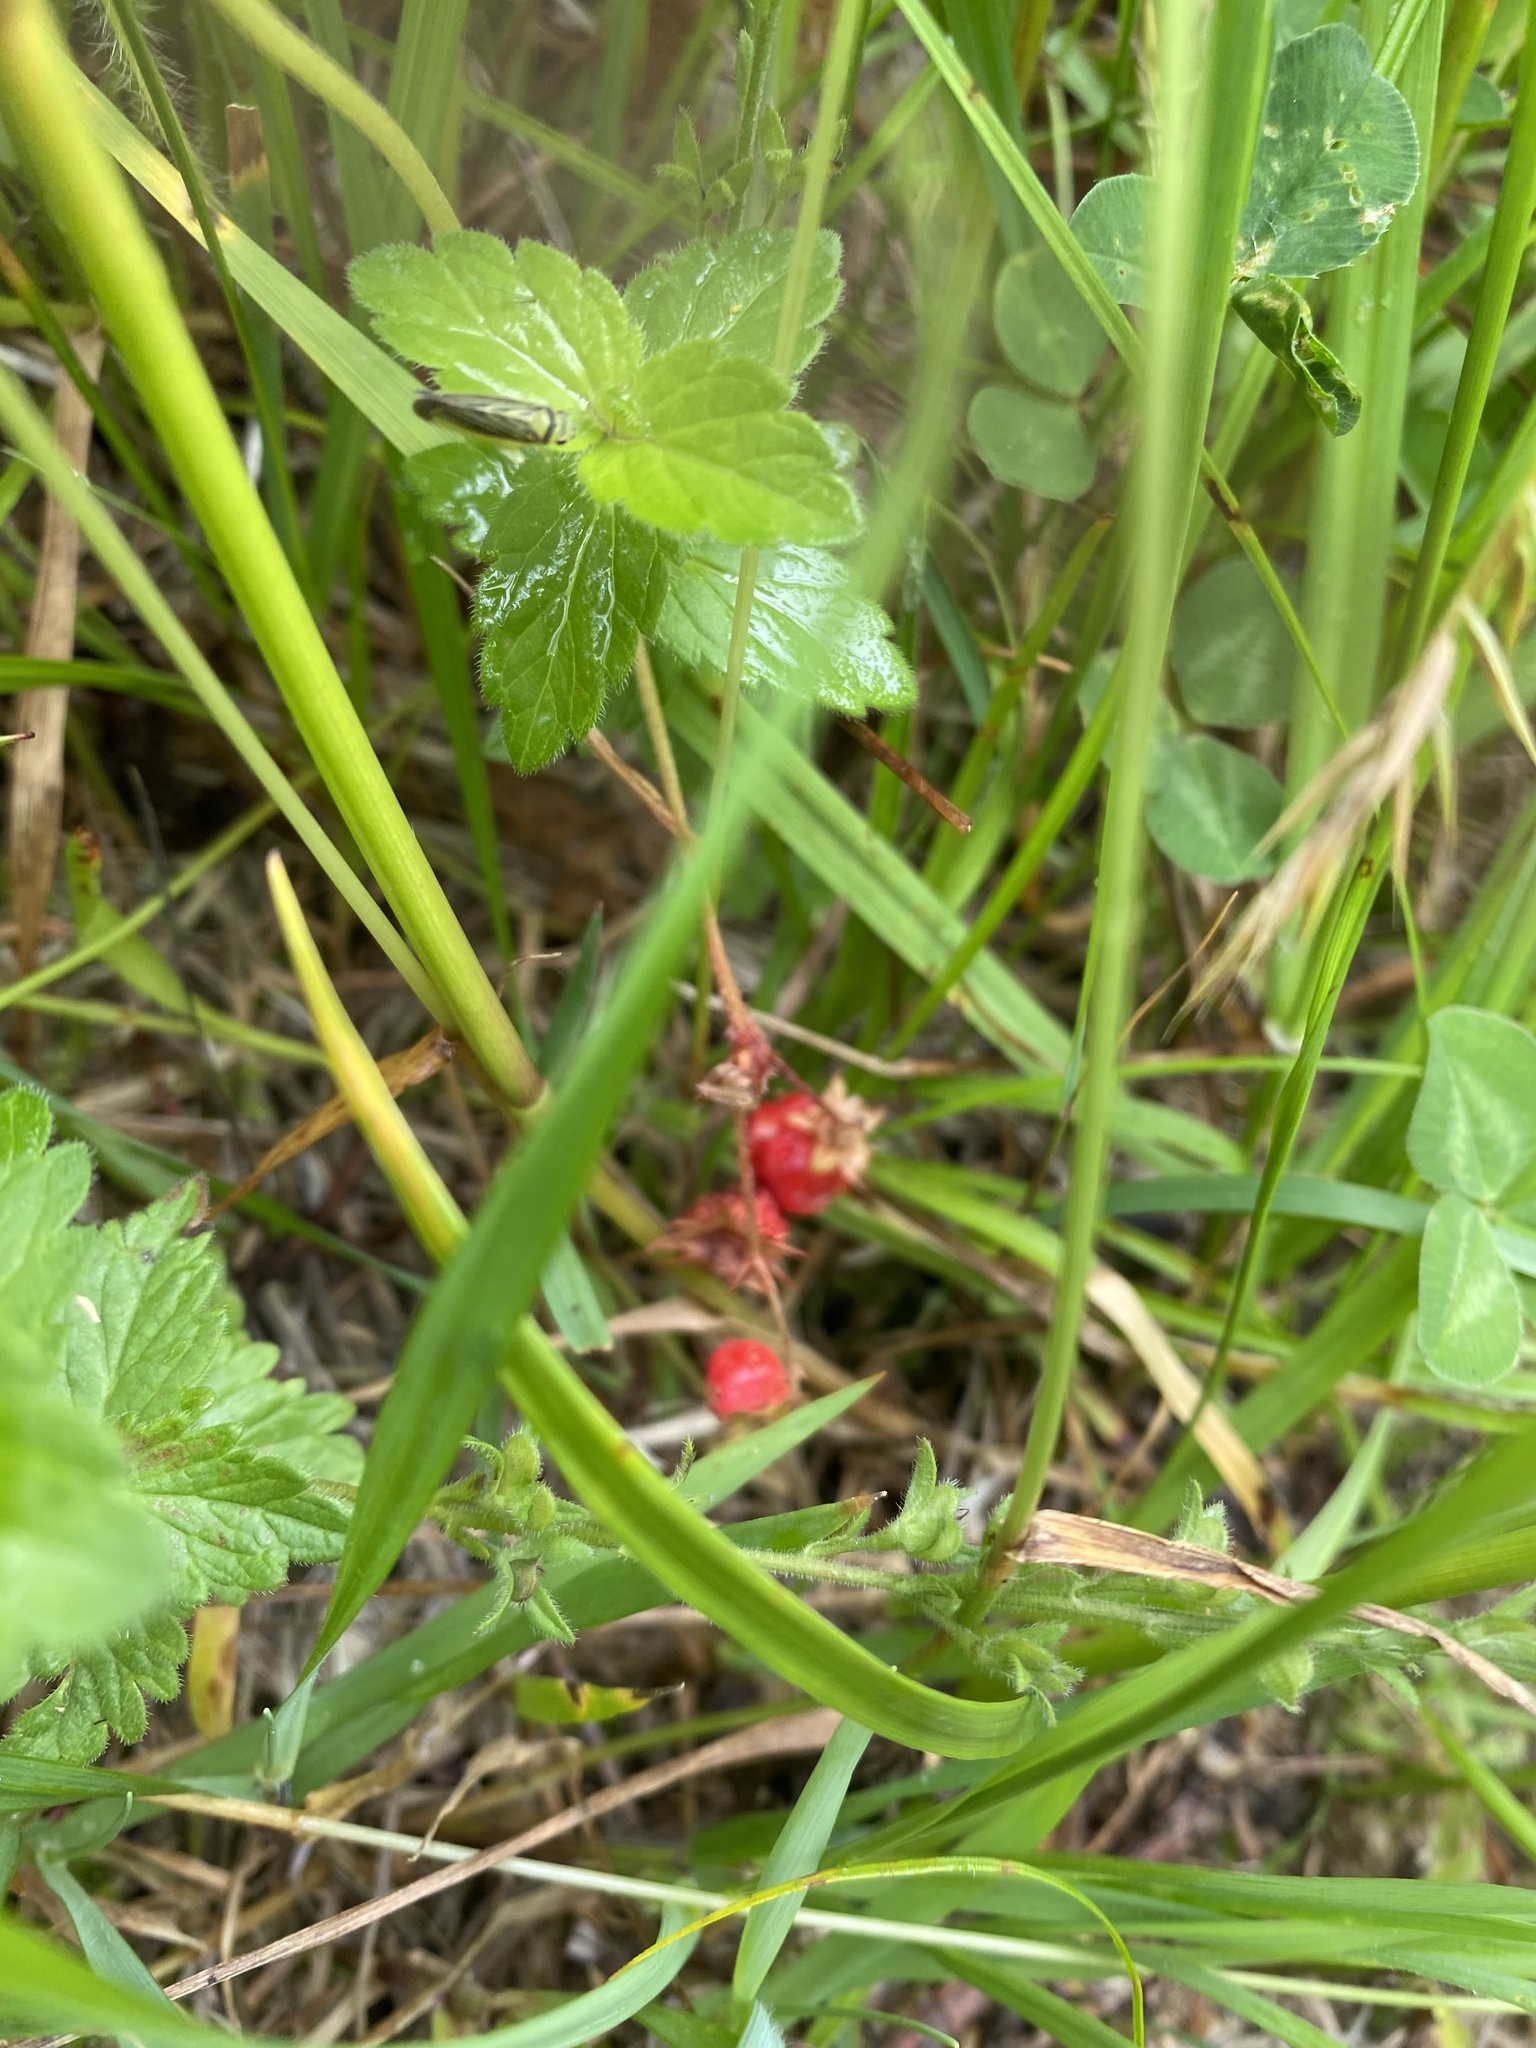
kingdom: Plantae
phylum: Tracheophyta
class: Magnoliopsida
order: Rosales
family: Rosaceae
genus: Fragaria
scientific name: Fragaria nipponica
